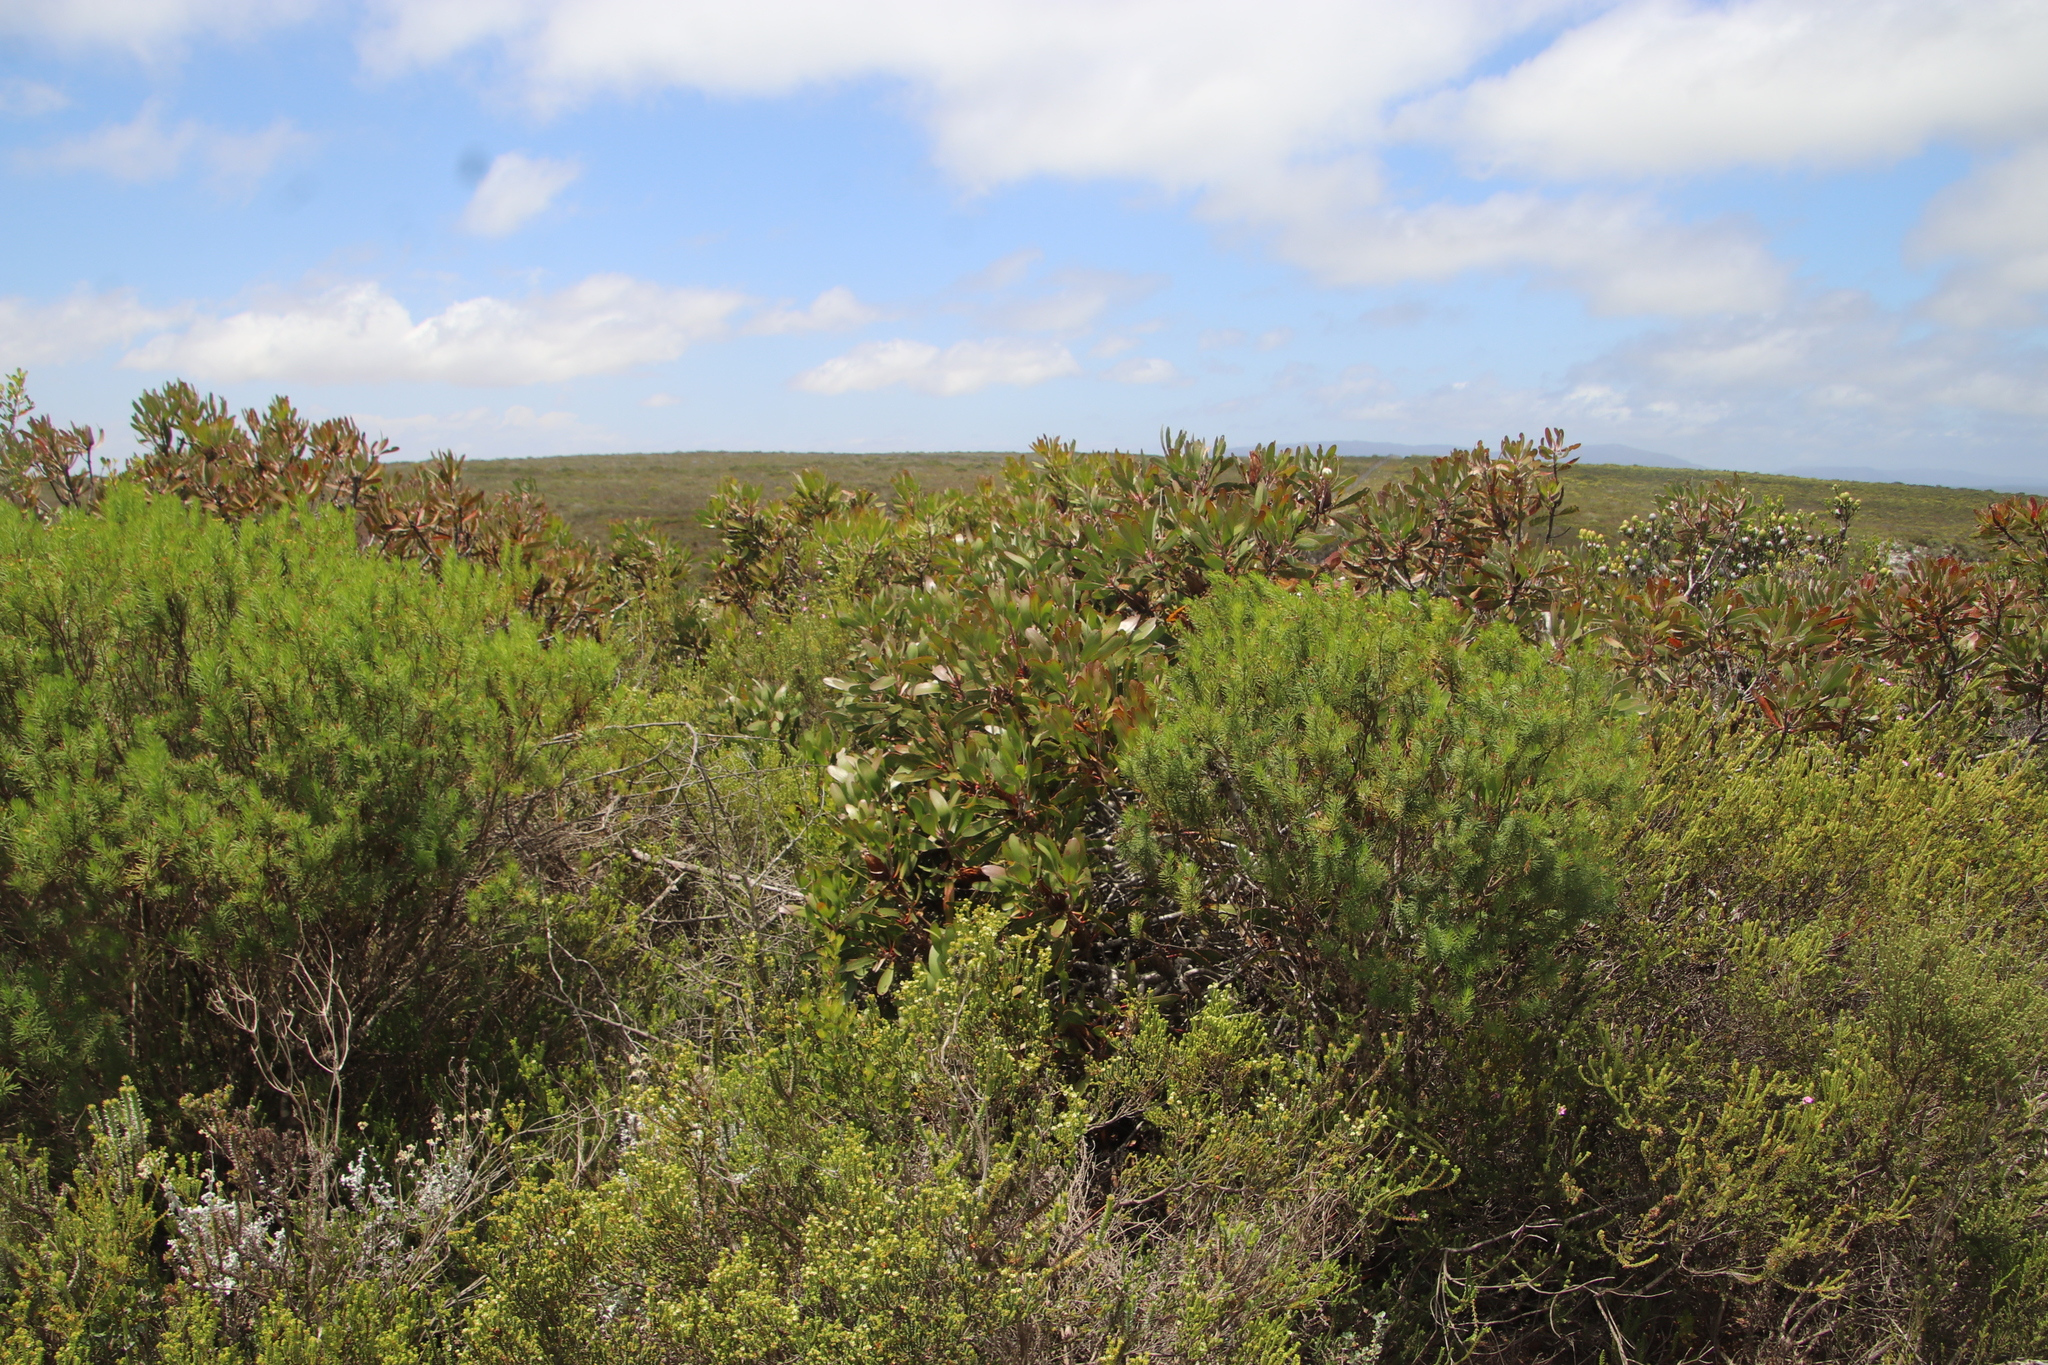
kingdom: Plantae
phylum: Tracheophyta
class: Magnoliopsida
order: Proteales
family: Proteaceae
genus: Protea
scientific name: Protea obtusifolia
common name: Bredasdorp sugarbush
